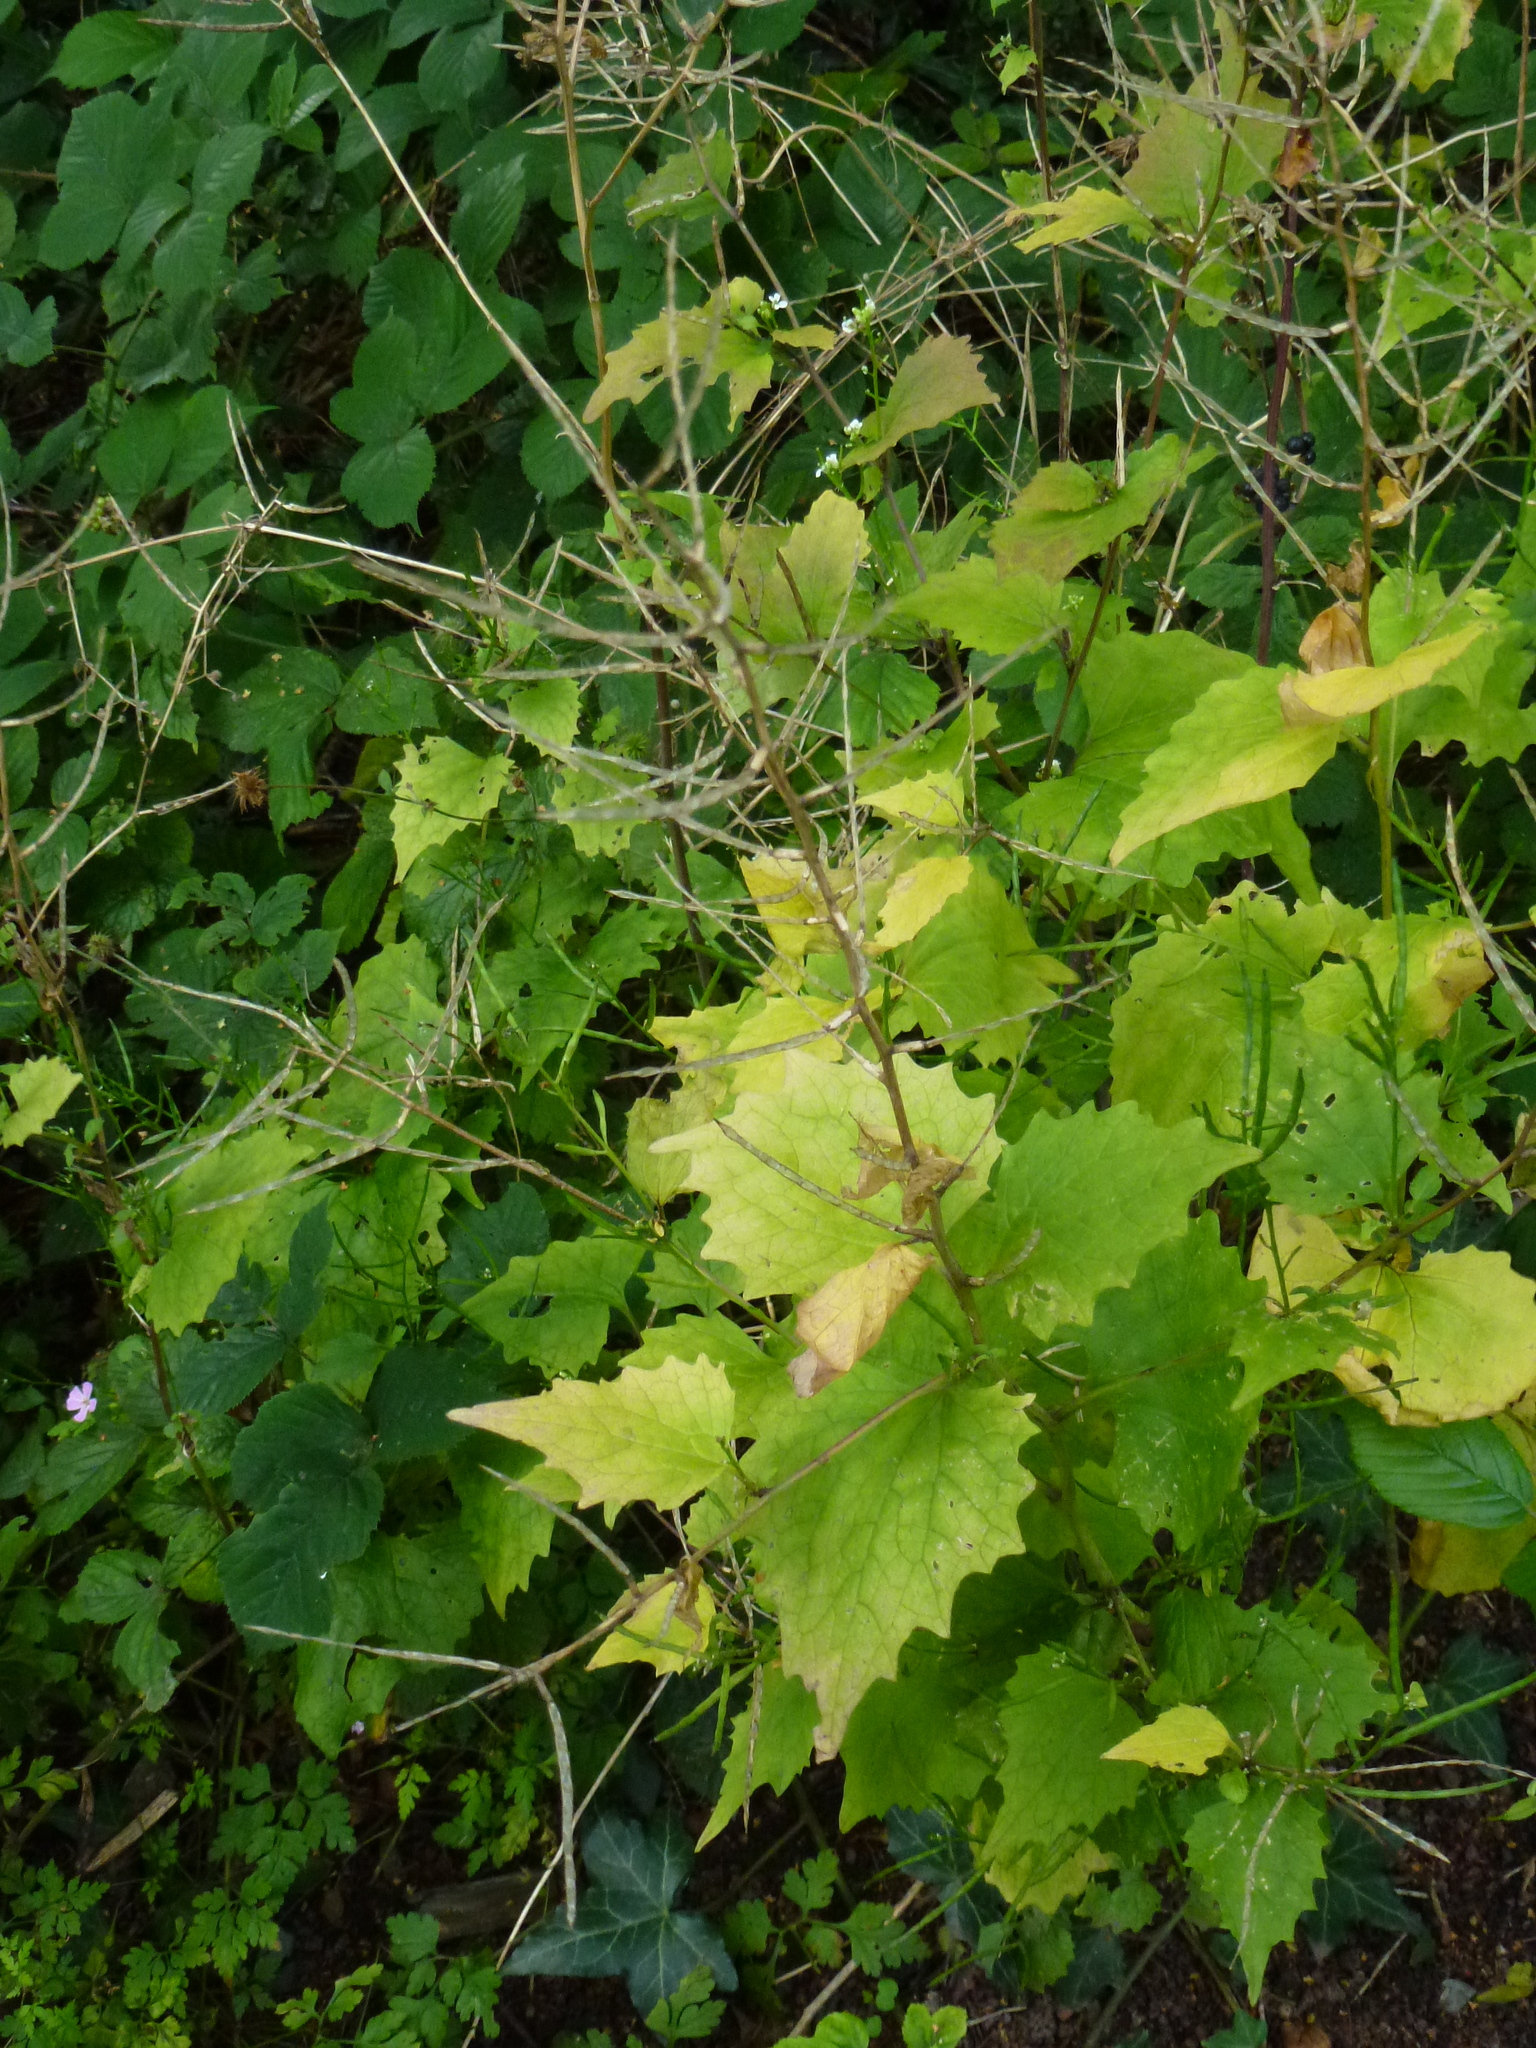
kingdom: Plantae
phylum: Tracheophyta
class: Magnoliopsida
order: Brassicales
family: Brassicaceae
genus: Alliaria
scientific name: Alliaria petiolata
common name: Garlic mustard
